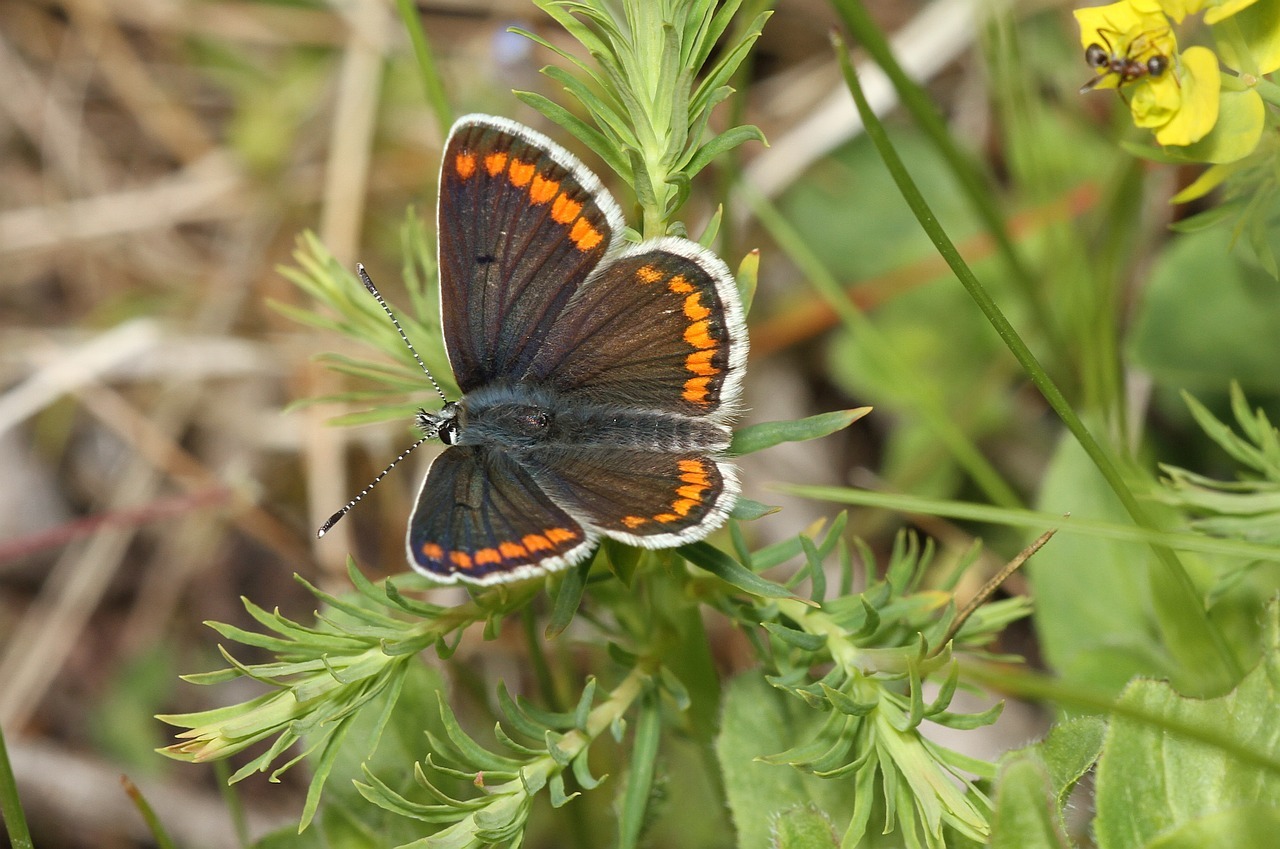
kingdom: Animalia
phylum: Arthropoda
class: Insecta
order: Lepidoptera
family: Lycaenidae
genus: Aricia
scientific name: Aricia agestis
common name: Brown argus
